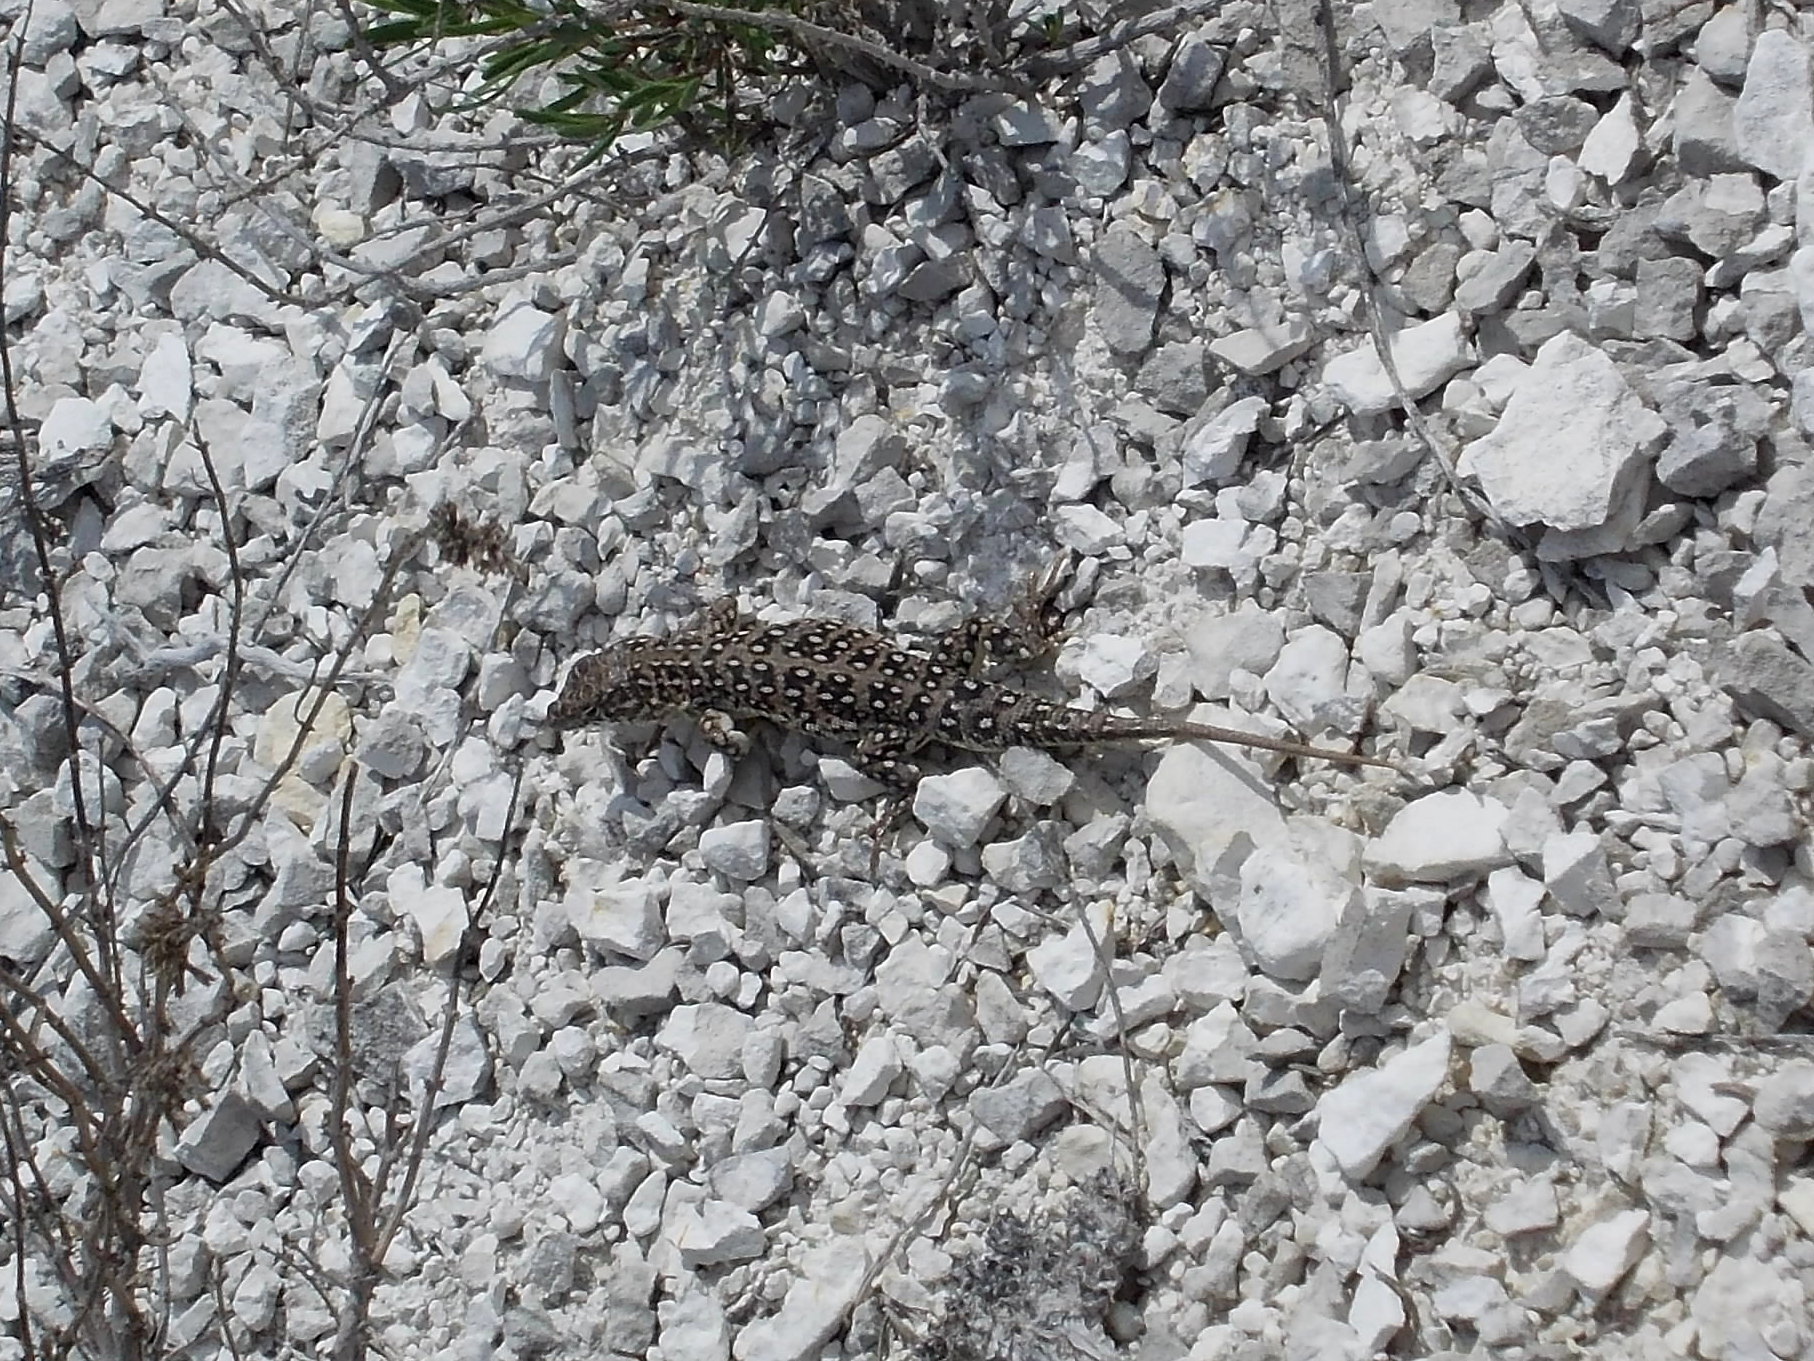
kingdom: Animalia
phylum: Chordata
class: Squamata
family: Lacertidae
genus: Eremias
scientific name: Eremias arguta
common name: Racerunner
